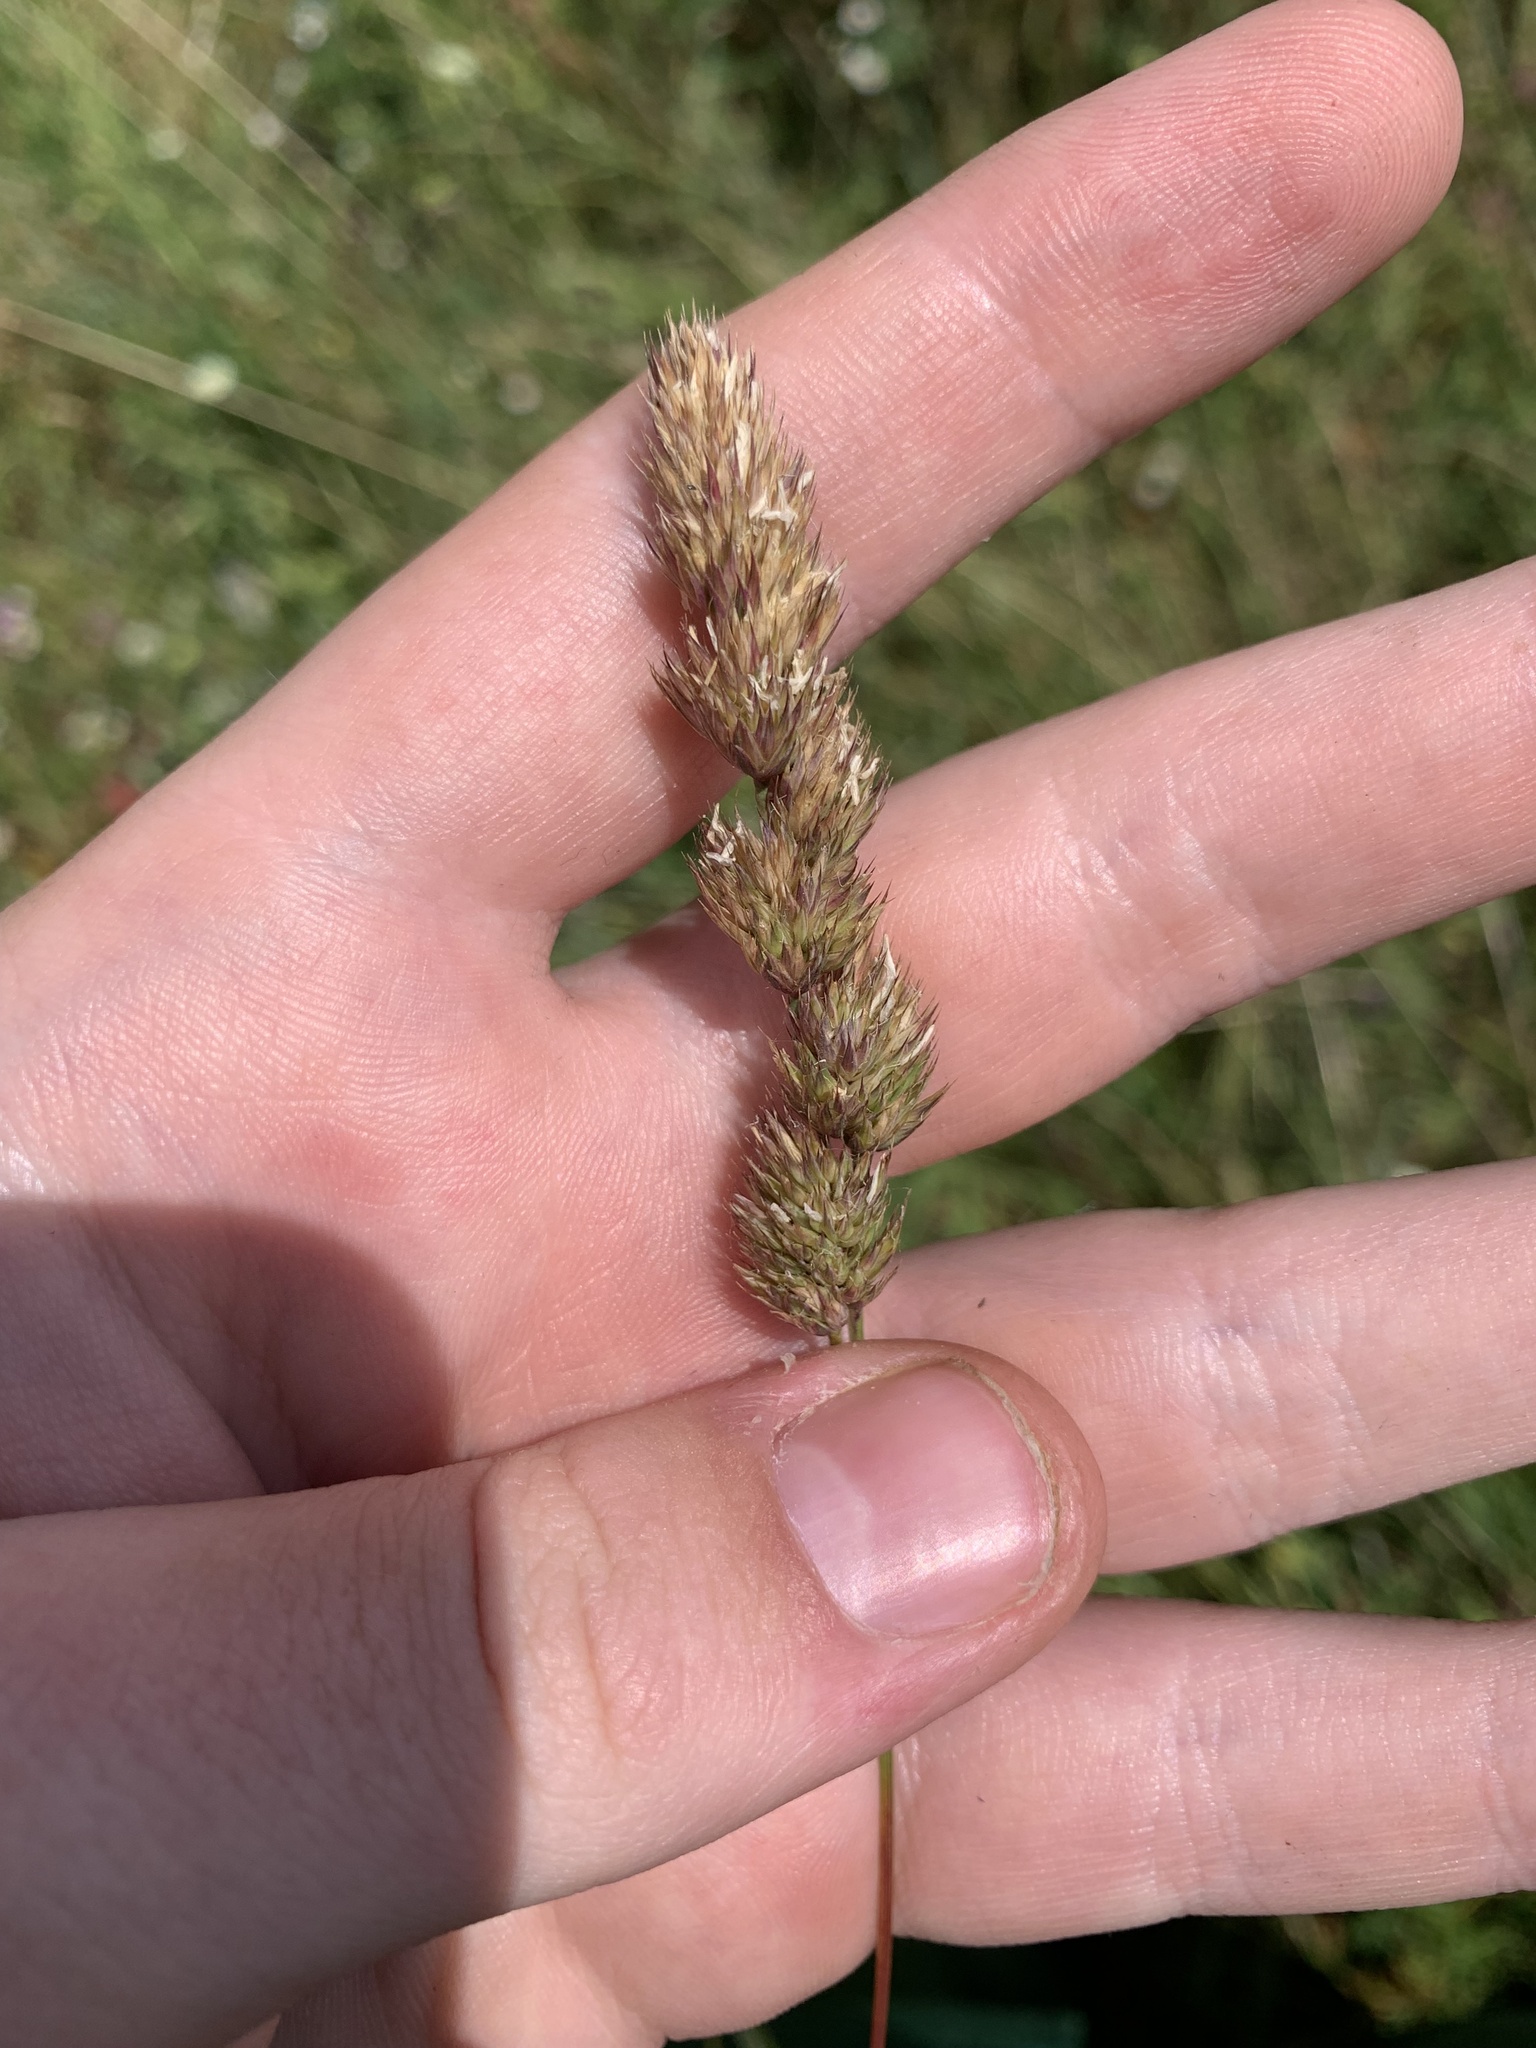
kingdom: Plantae
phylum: Tracheophyta
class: Liliopsida
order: Poales
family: Poaceae
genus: Dactylis
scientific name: Dactylis glomerata
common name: Orchardgrass
